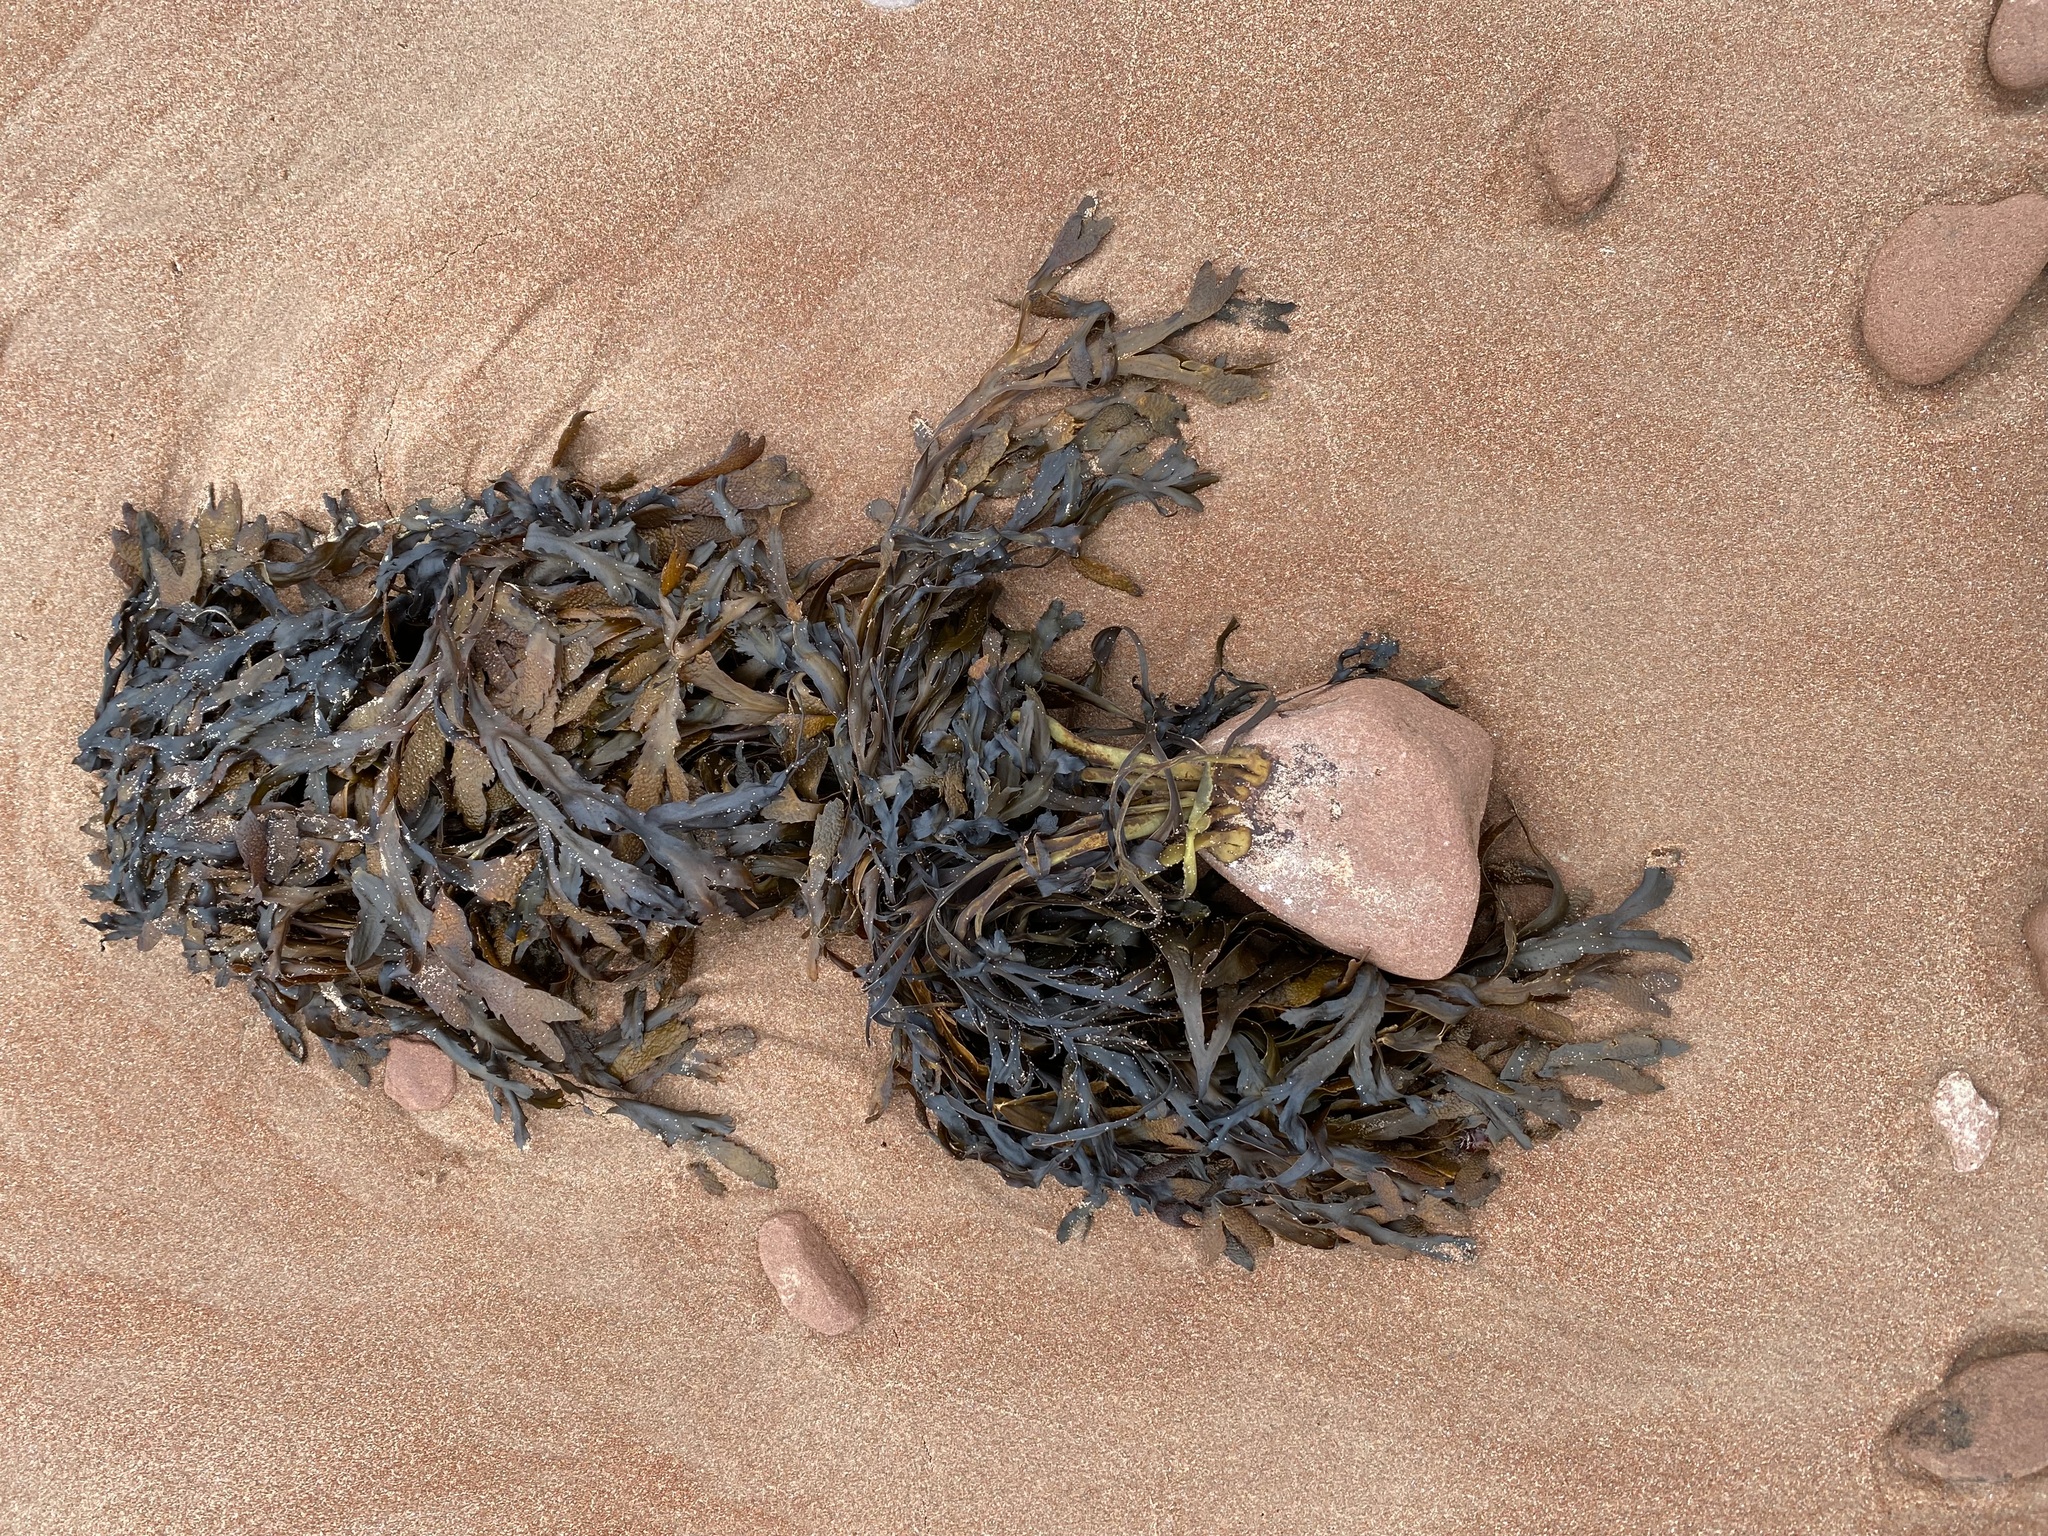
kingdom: Chromista
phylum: Ochrophyta
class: Phaeophyceae
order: Fucales
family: Fucaceae
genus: Fucus
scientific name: Fucus serratus
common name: Toothed wrack
